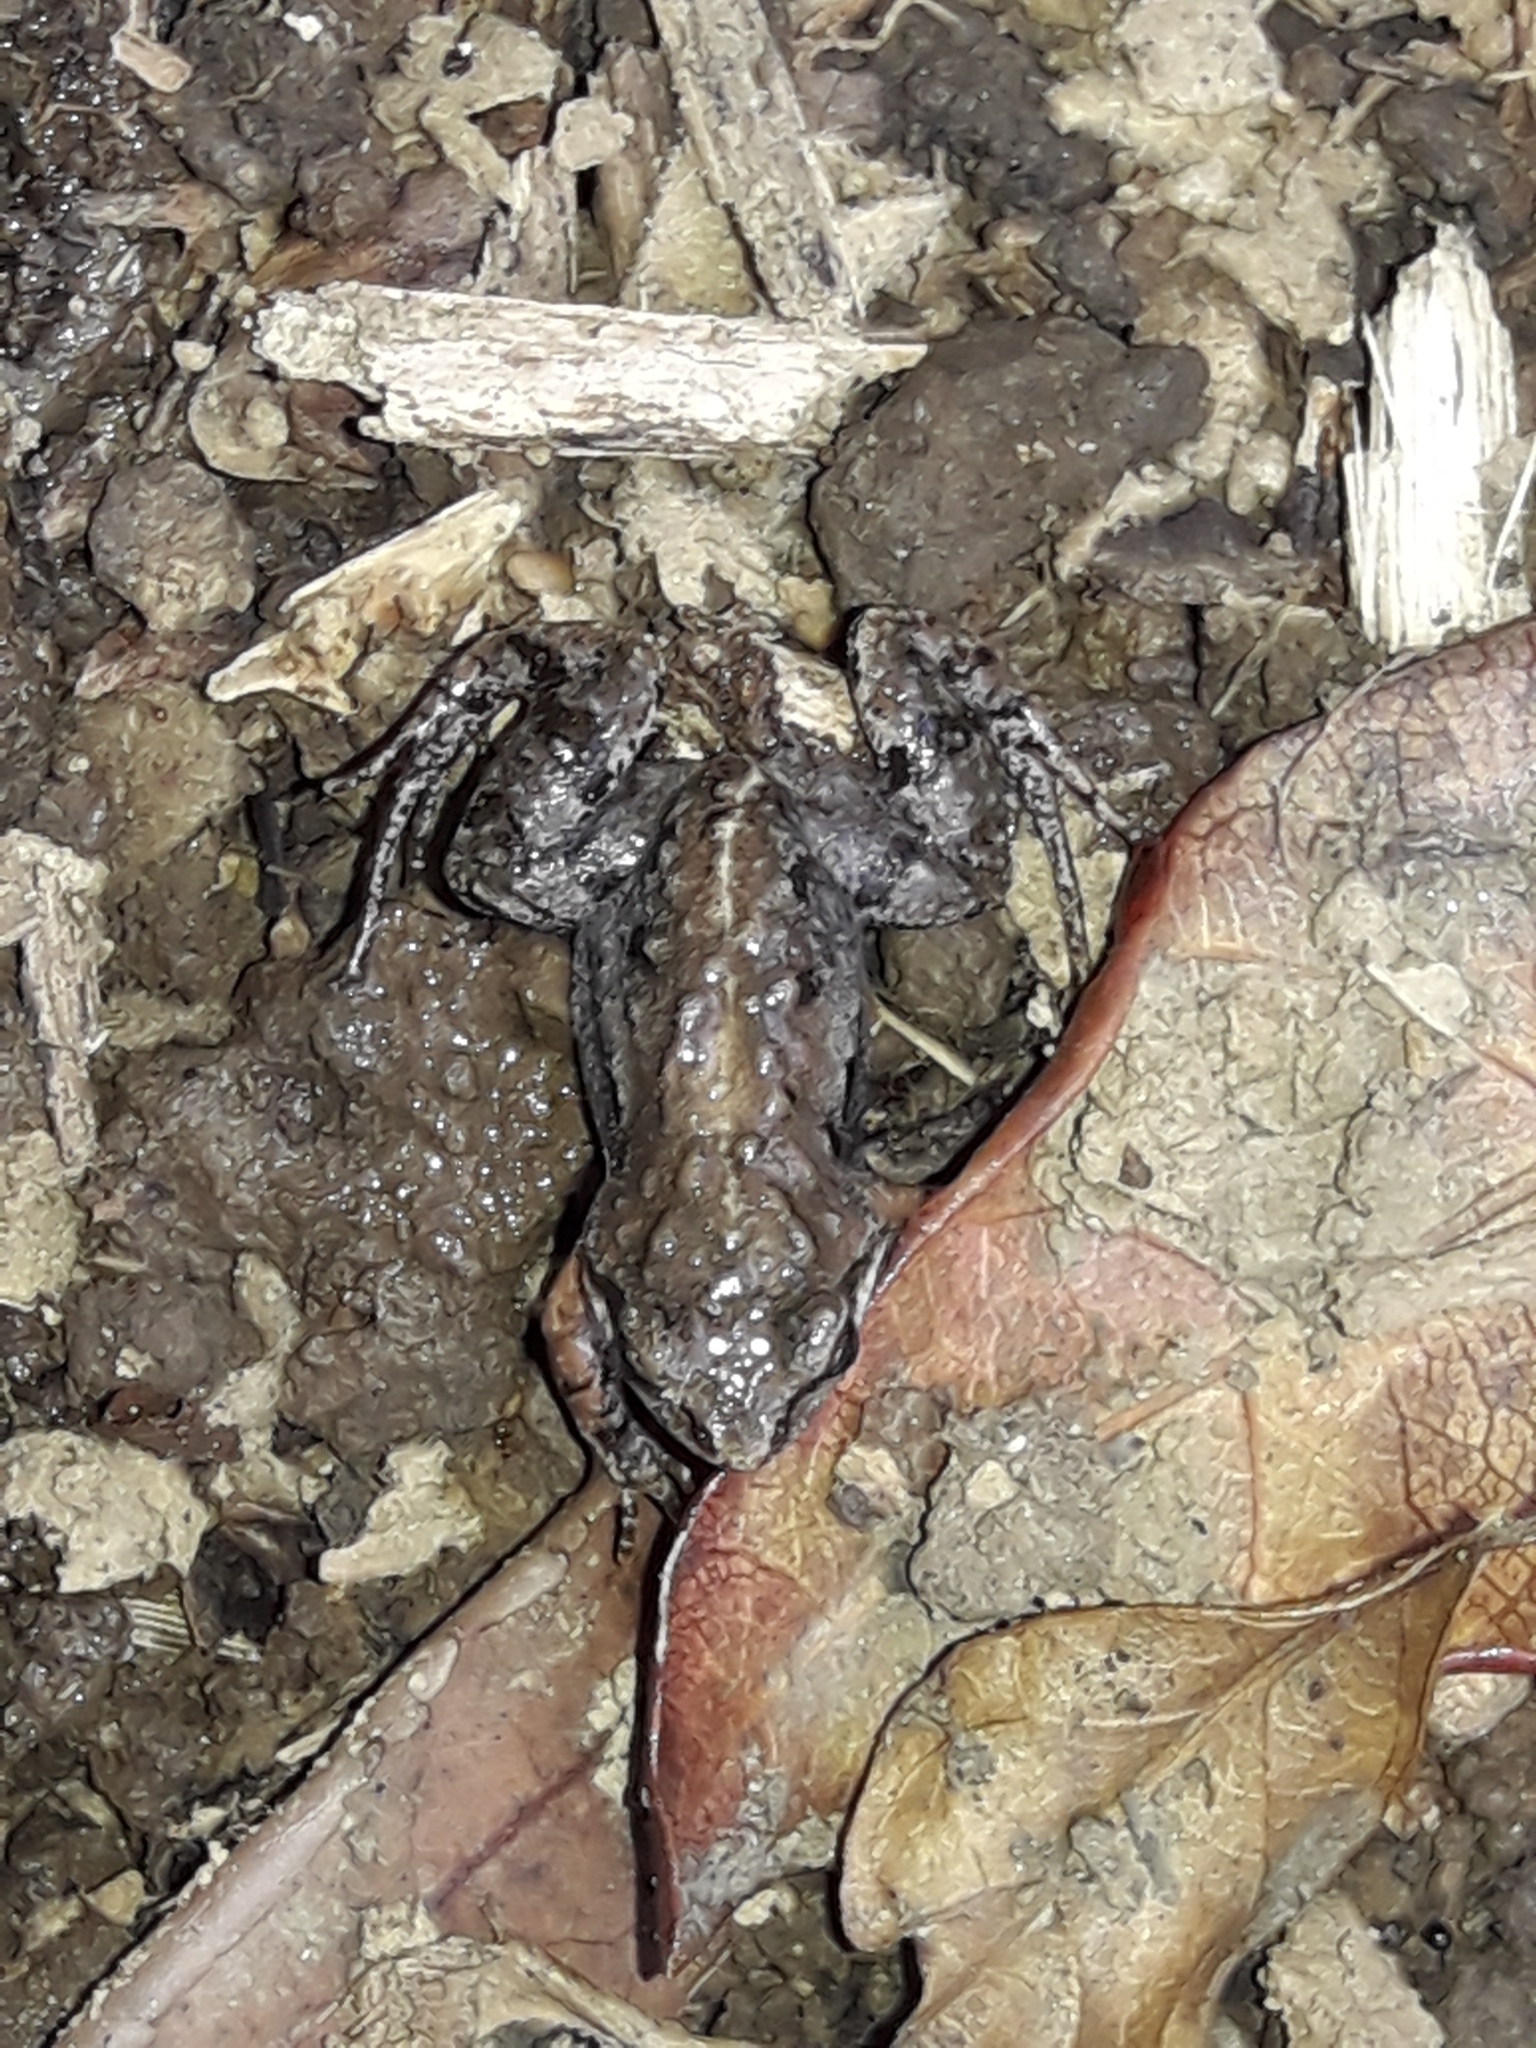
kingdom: Animalia
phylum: Chordata
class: Amphibia
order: Anura
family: Pyxicephalidae
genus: Cacosternum
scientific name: Cacosternum nanum
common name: Bronze dainty frog
